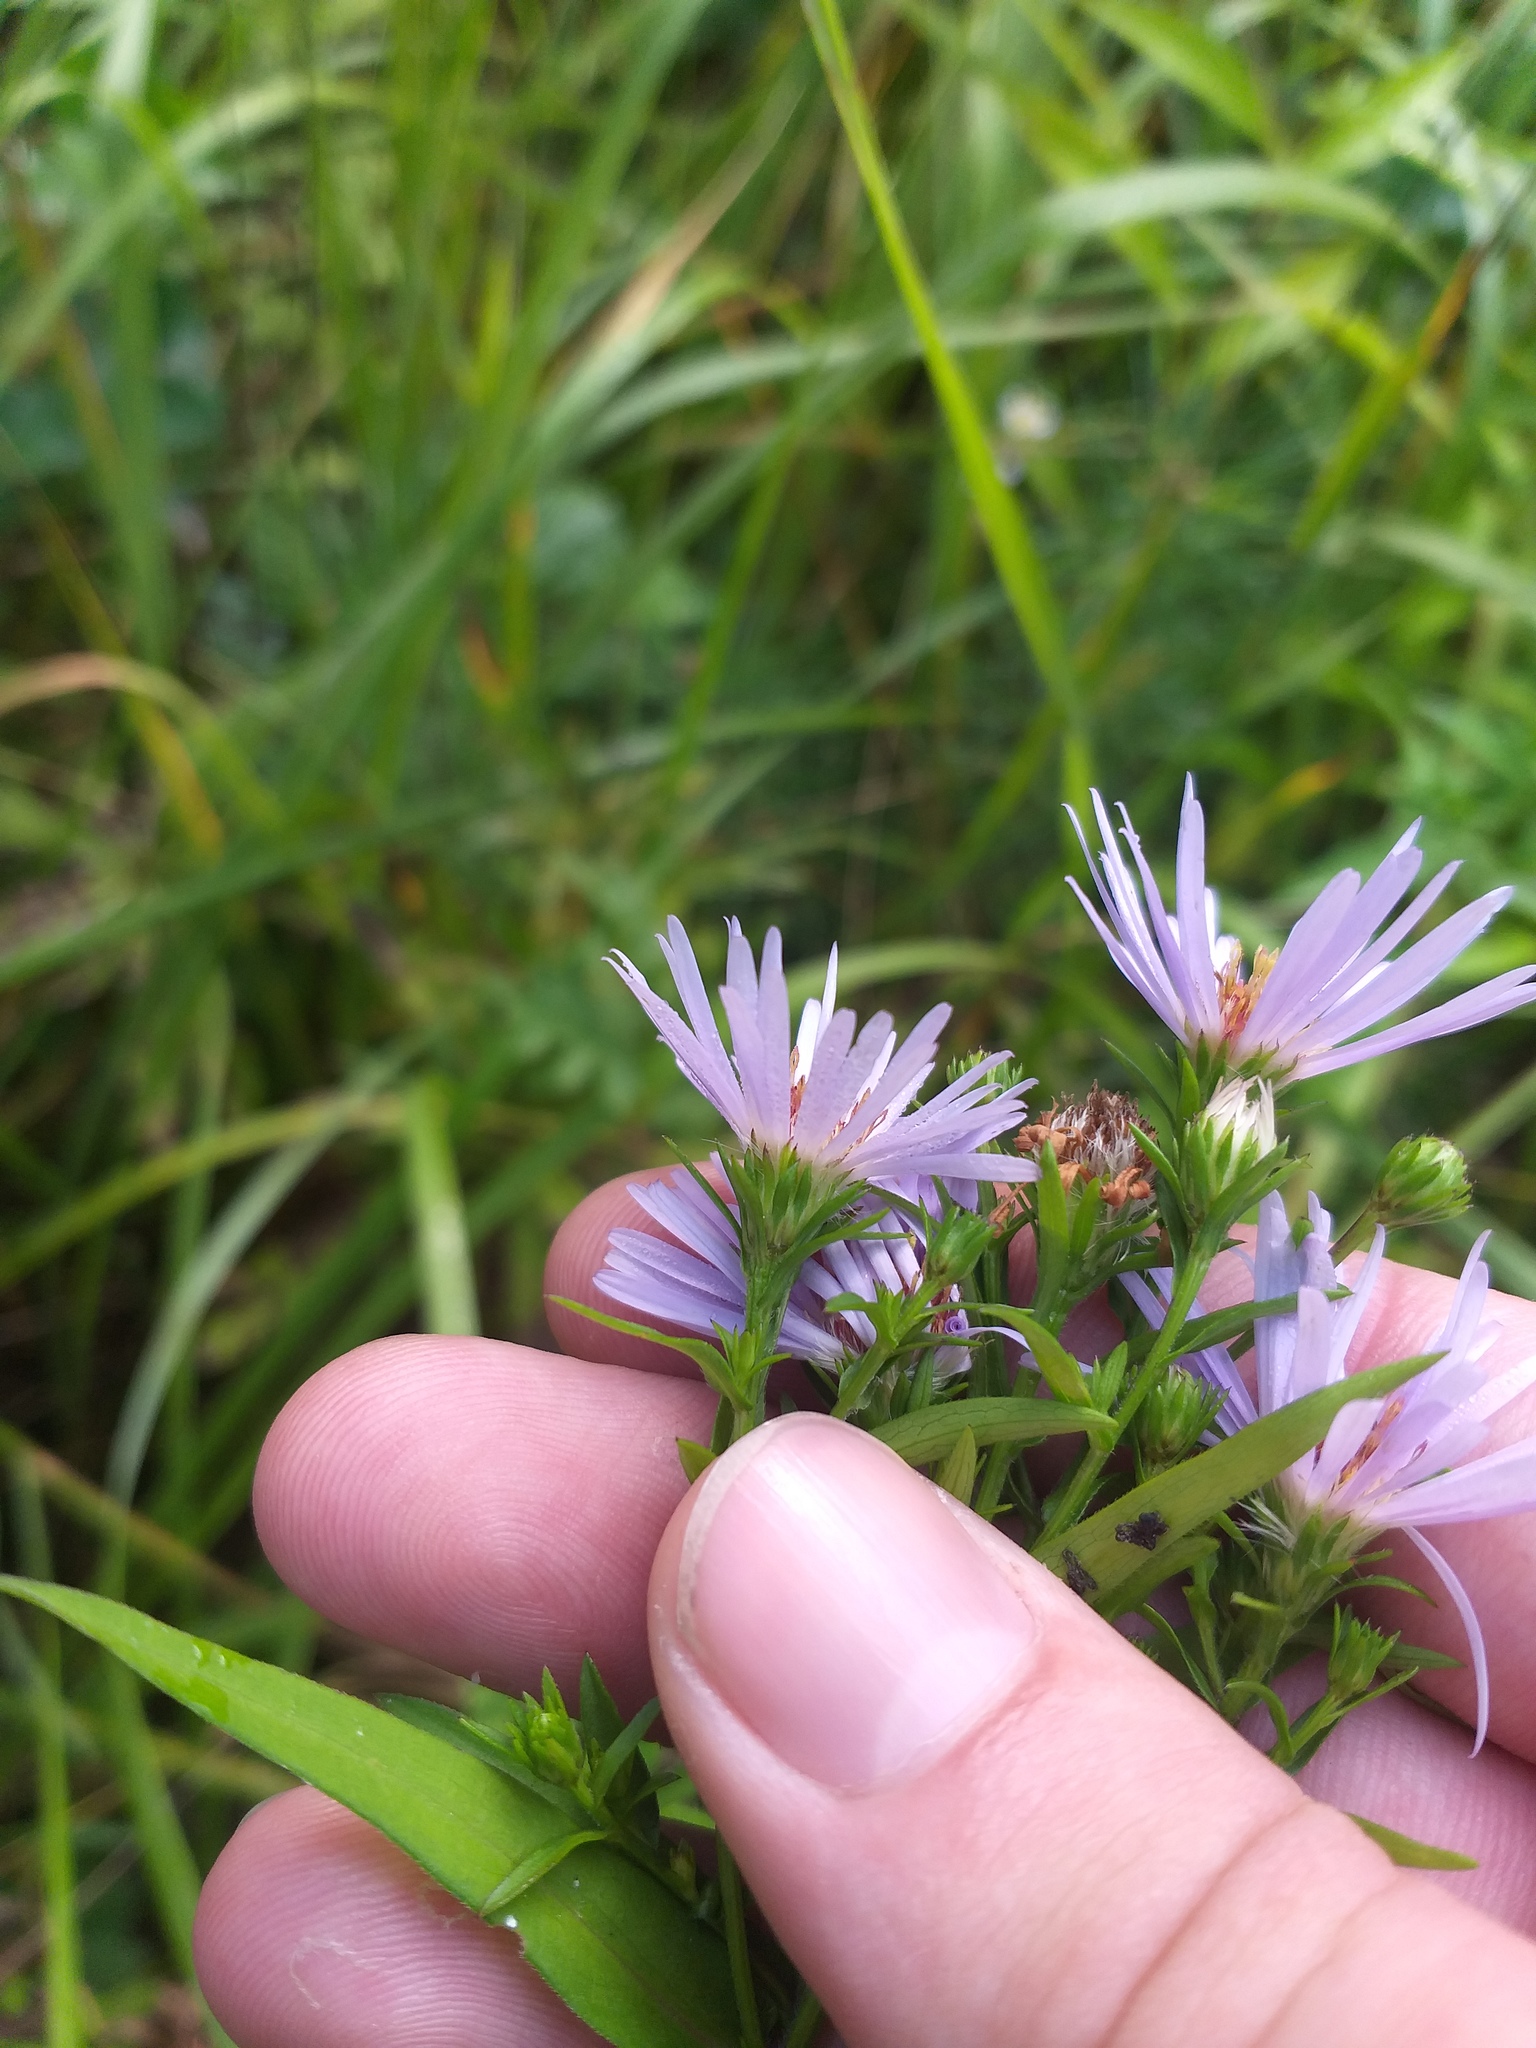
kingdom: Plantae
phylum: Tracheophyta
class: Magnoliopsida
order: Asterales
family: Asteraceae
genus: Symphyotrichum
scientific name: Symphyotrichum novi-belgii
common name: Michaelmas daisy
